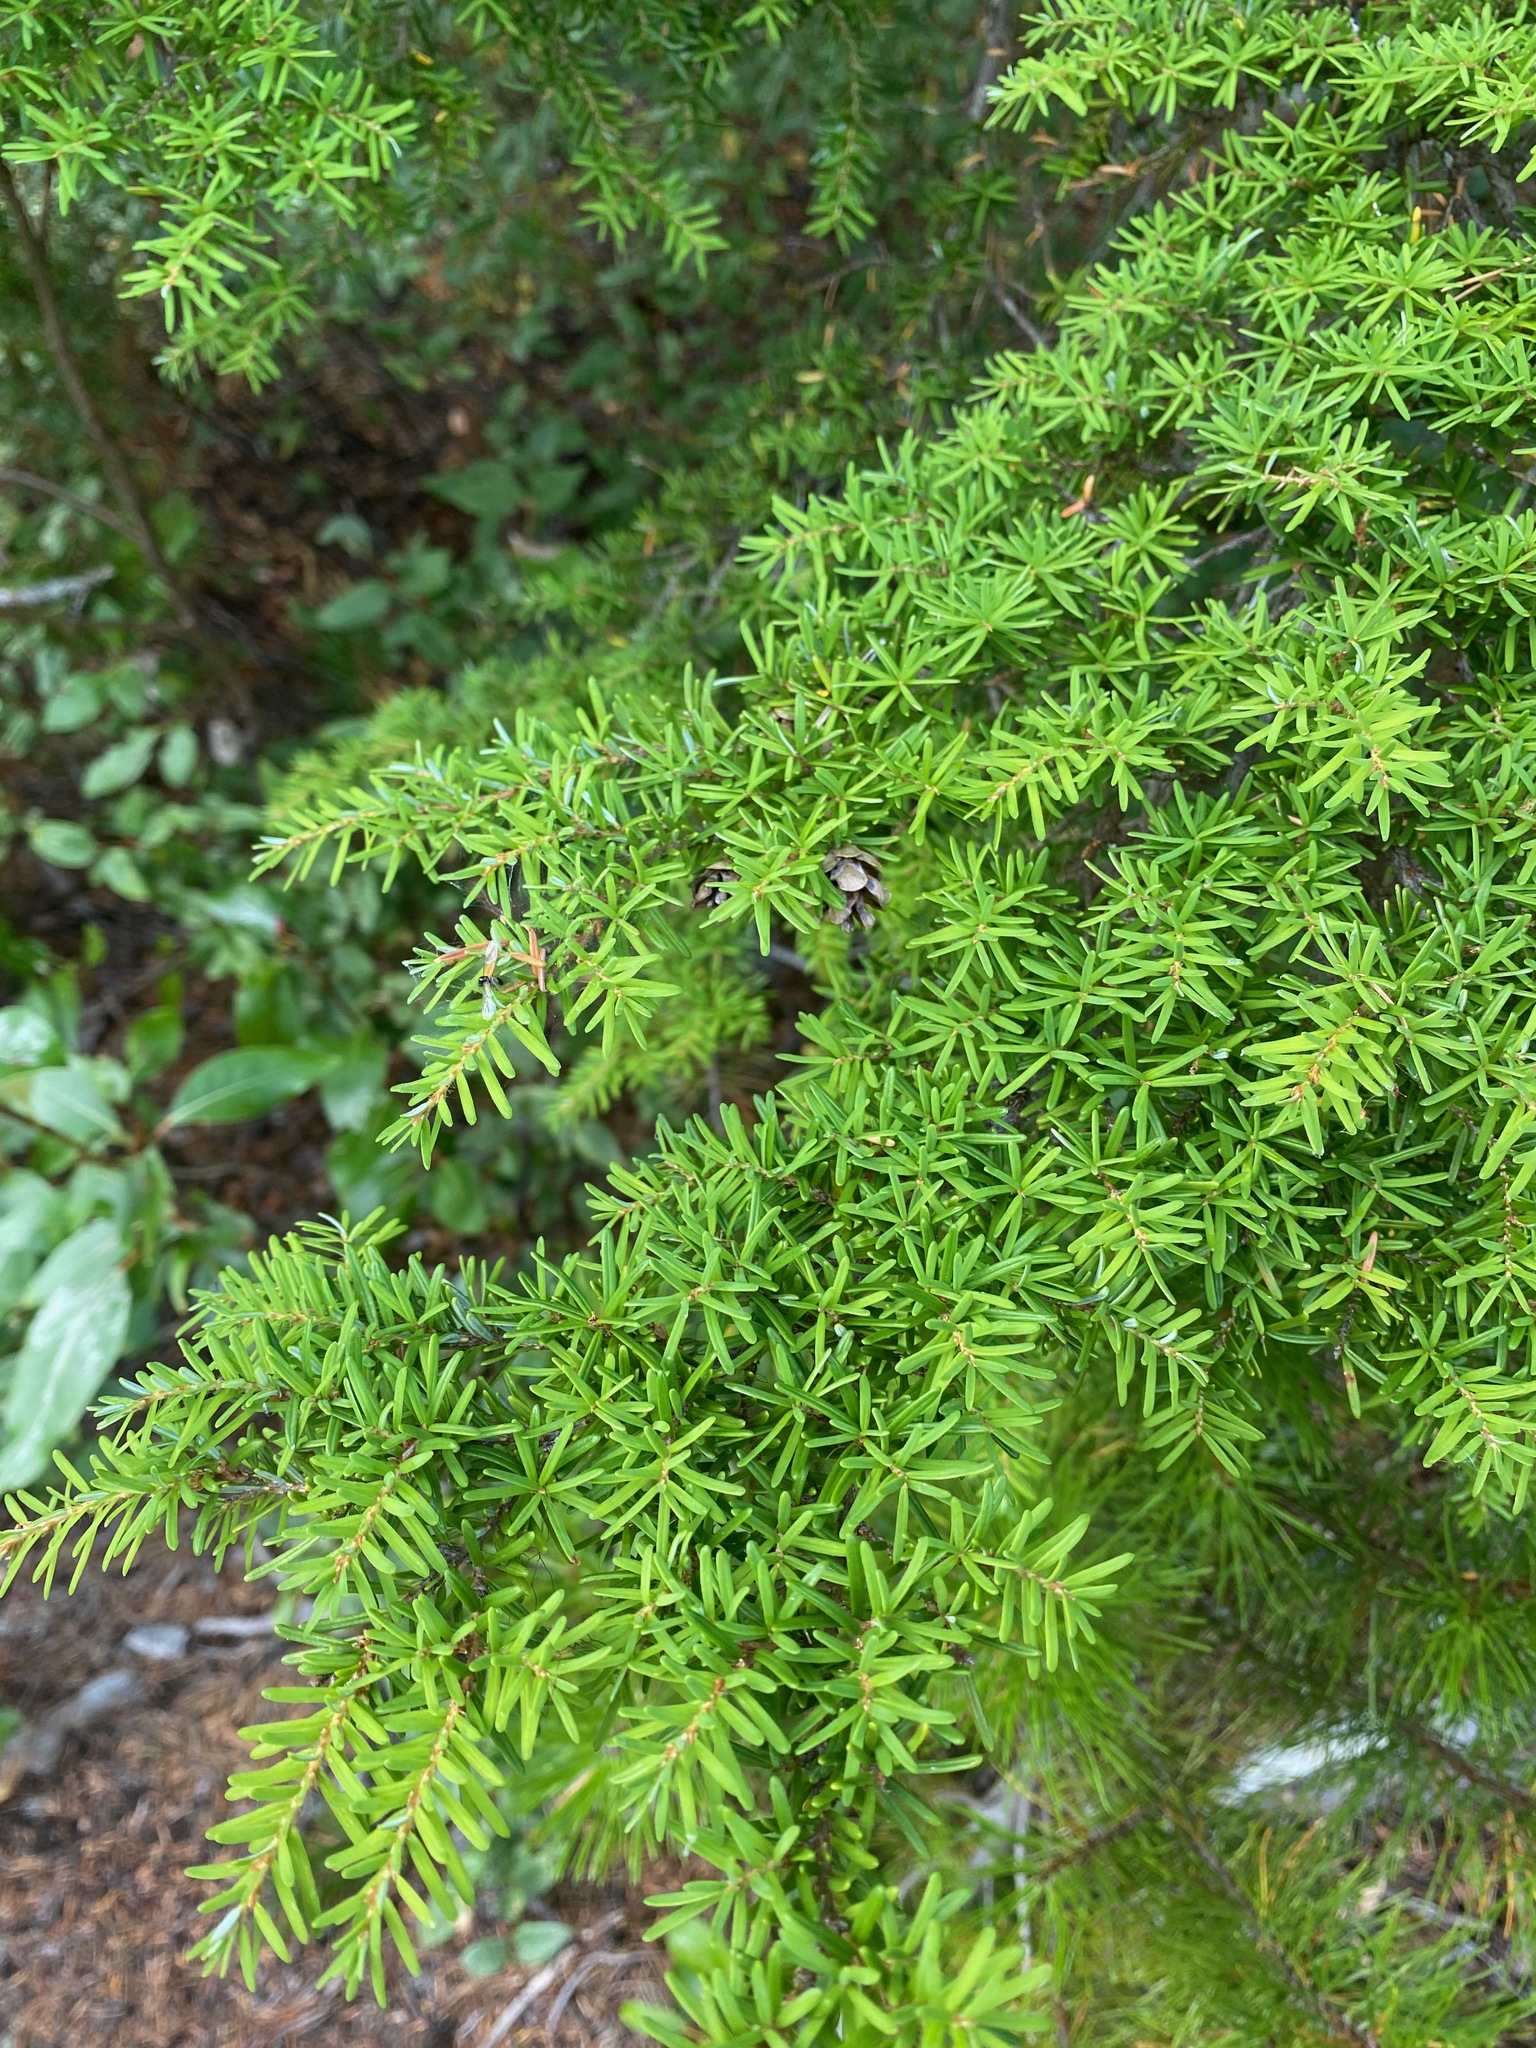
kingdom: Plantae
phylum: Tracheophyta
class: Pinopsida
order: Pinales
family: Pinaceae
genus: Tsuga
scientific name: Tsuga heterophylla
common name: Western hemlock
